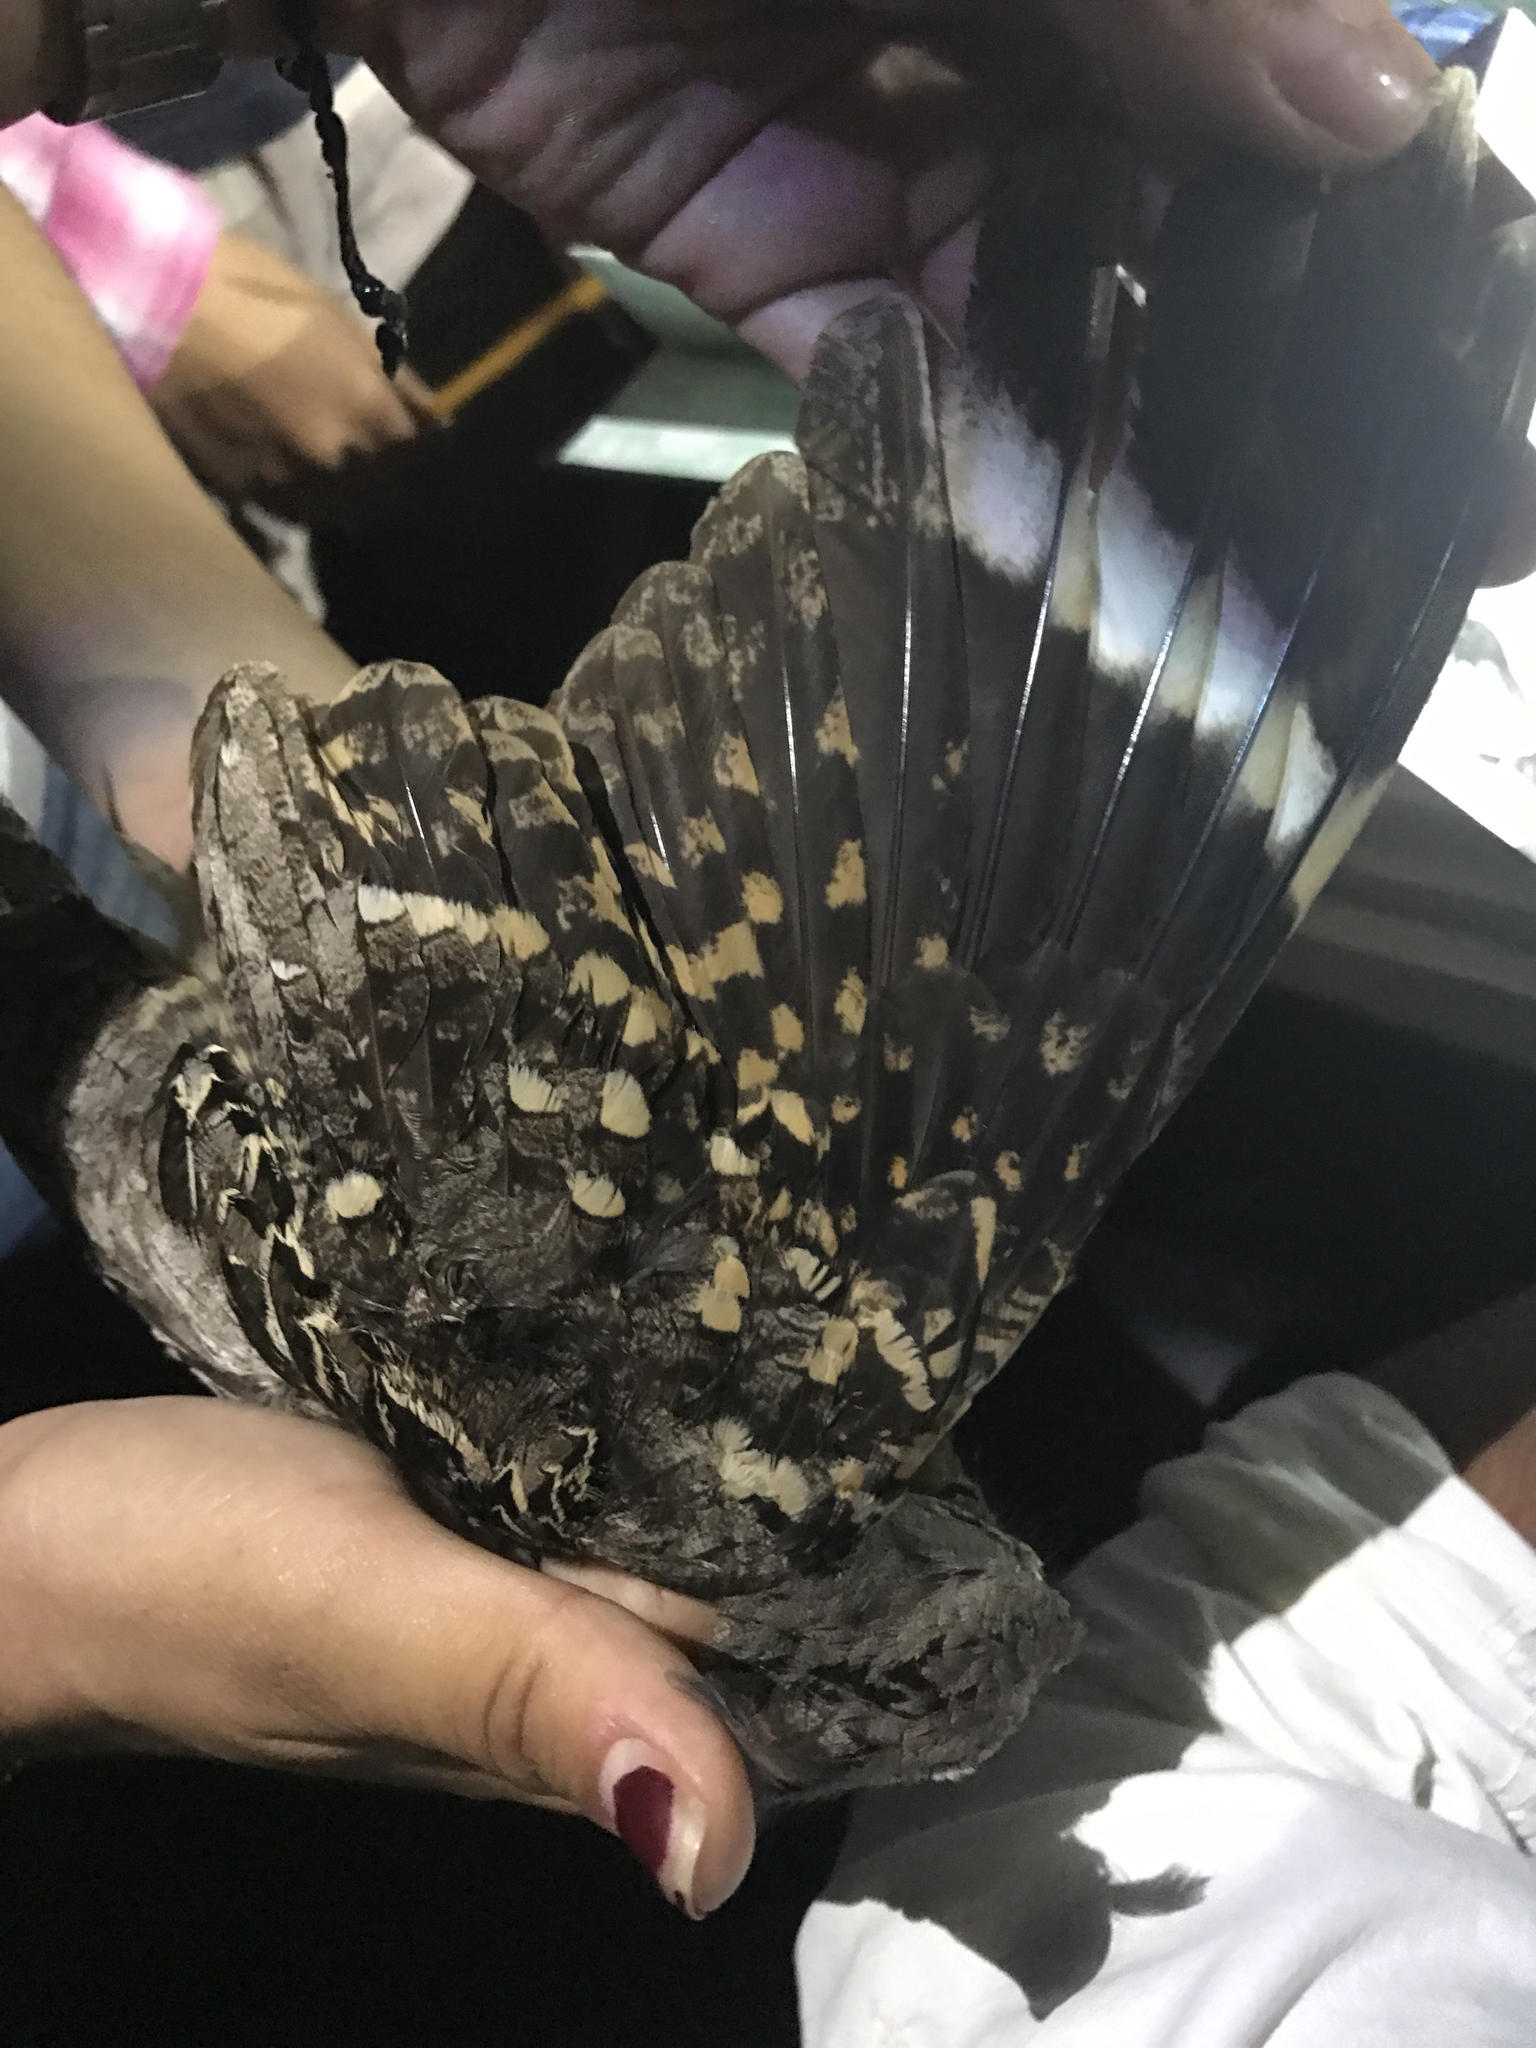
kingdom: Animalia
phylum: Chordata
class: Aves
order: Caprimulgiformes
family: Caprimulgidae
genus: Nyctidromus
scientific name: Nyctidromus albicollis
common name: Pauraque
